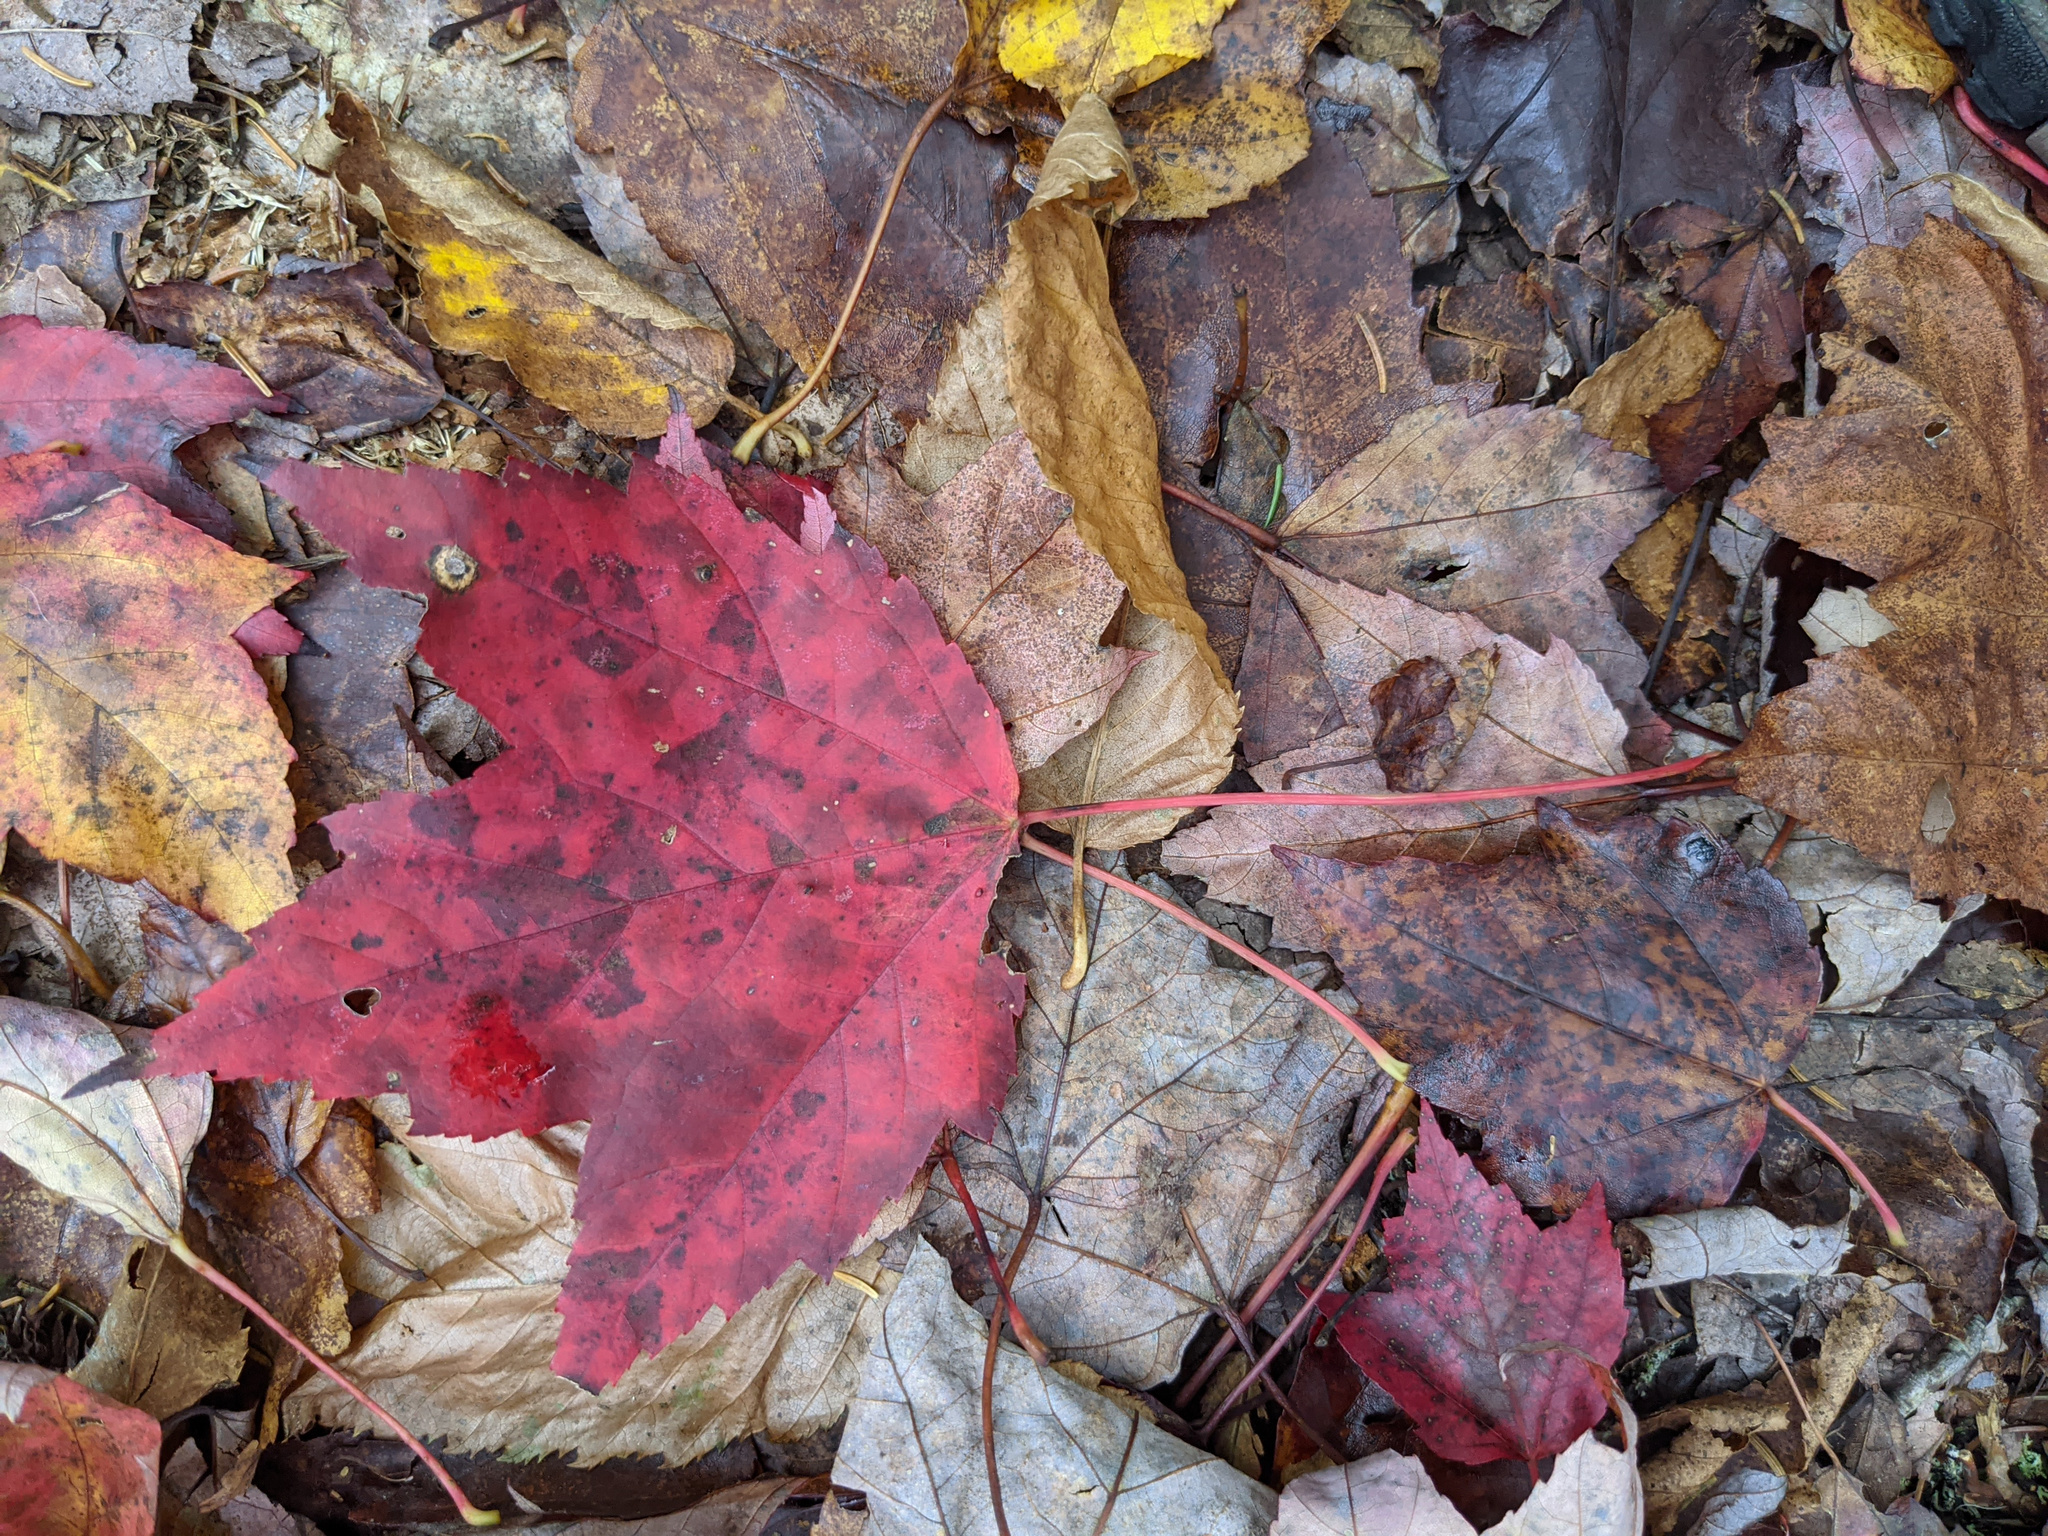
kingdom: Plantae
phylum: Tracheophyta
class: Magnoliopsida
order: Sapindales
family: Sapindaceae
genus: Acer
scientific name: Acer rubrum
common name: Red maple
